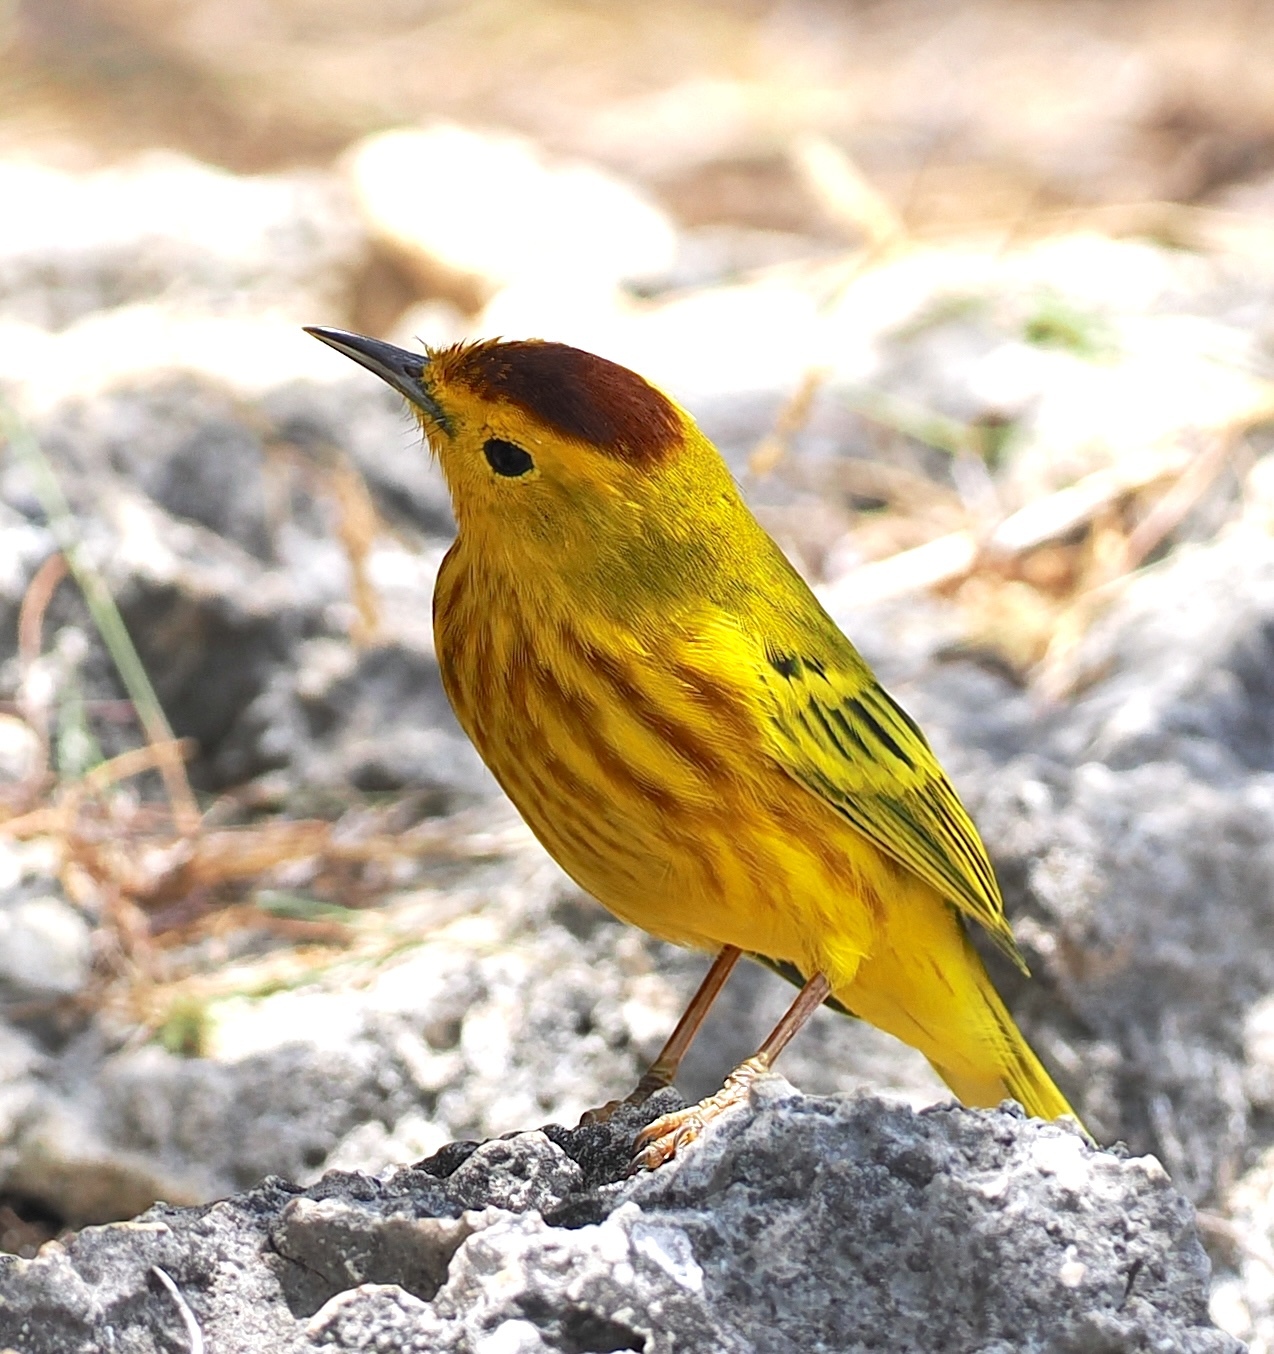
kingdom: Animalia
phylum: Chordata
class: Aves
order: Passeriformes
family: Parulidae
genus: Setophaga
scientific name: Setophaga petechia
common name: Yellow warbler
